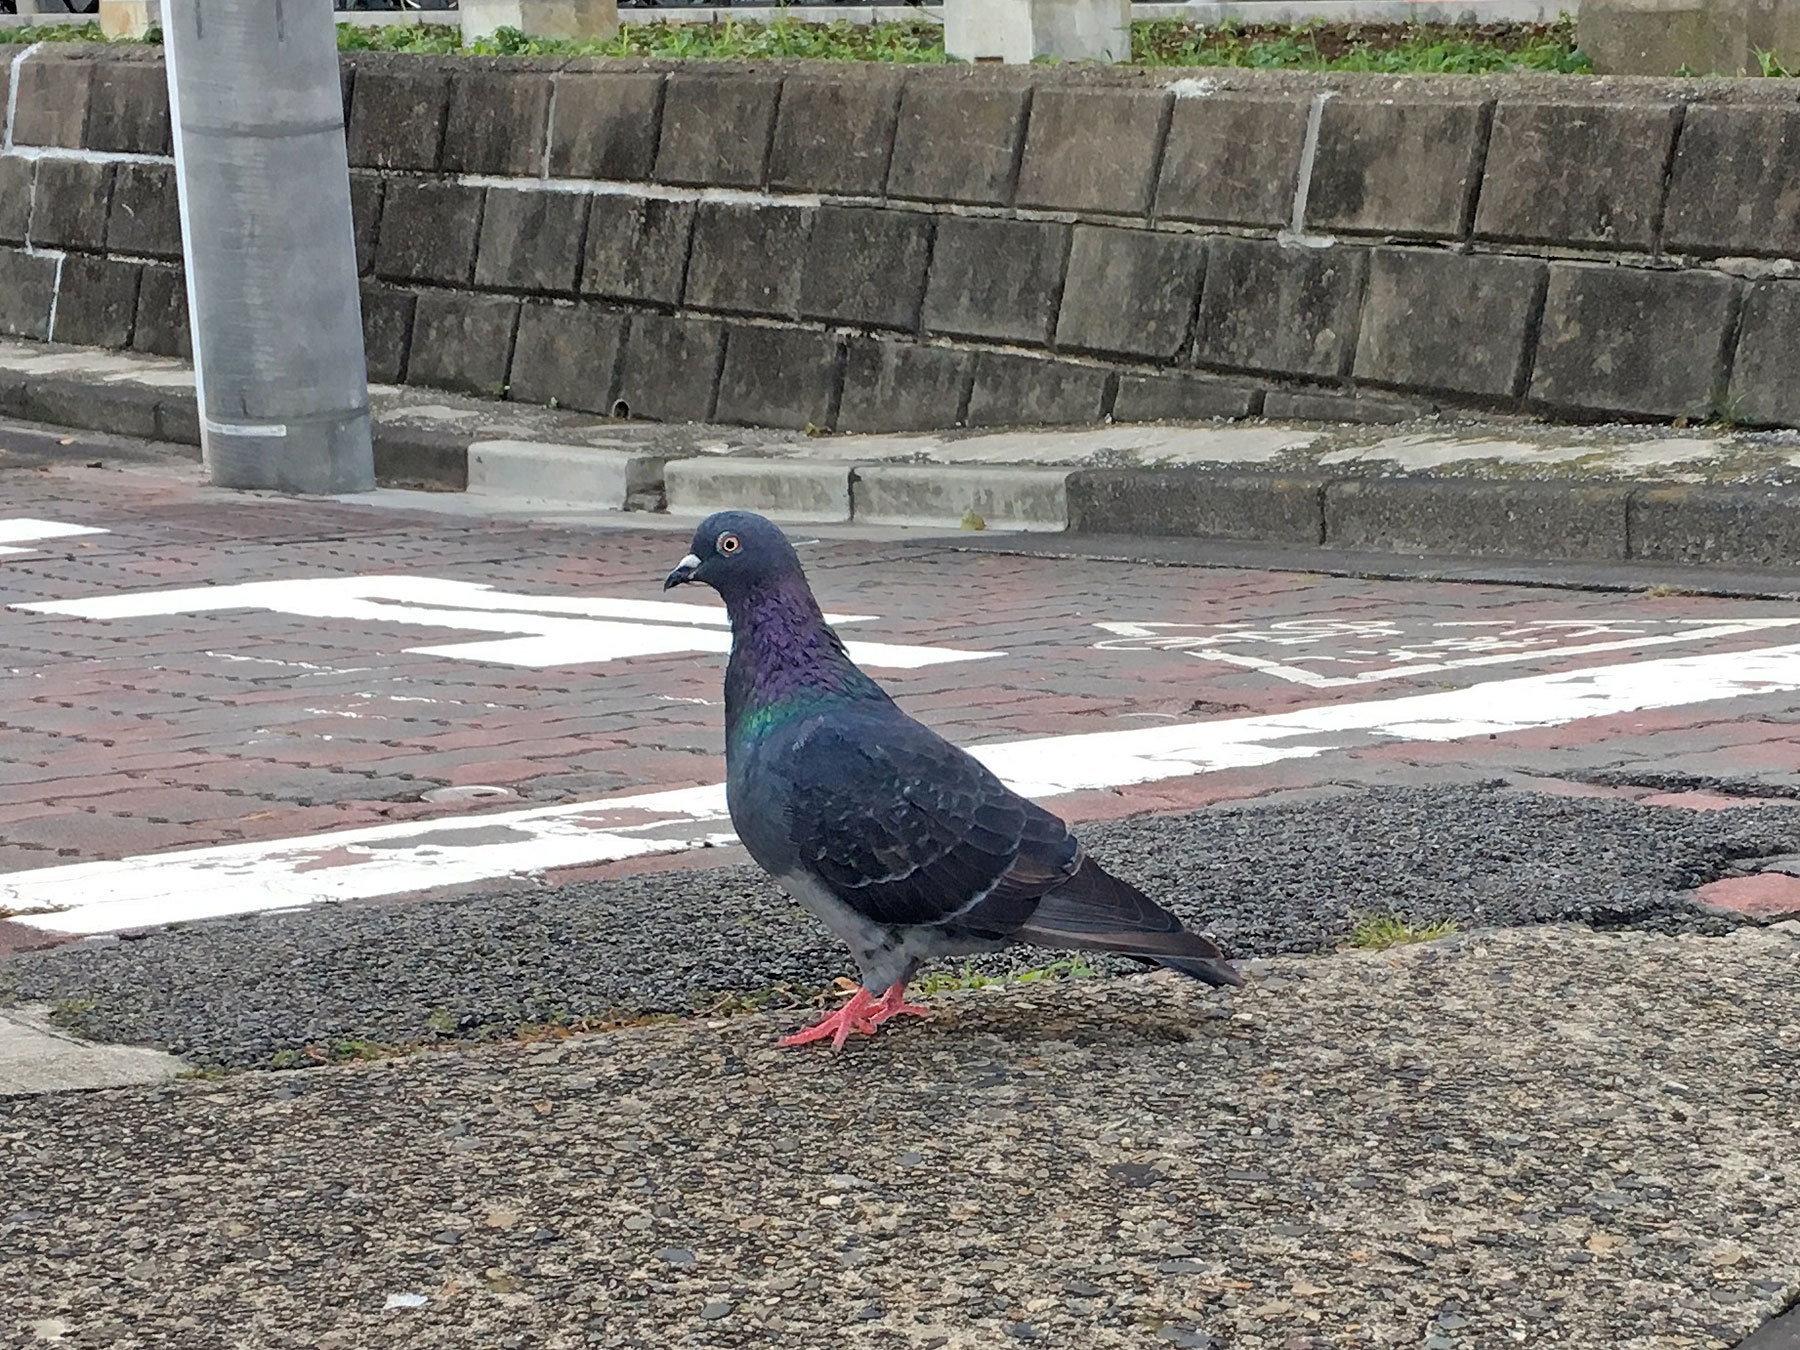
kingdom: Animalia
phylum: Chordata
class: Aves
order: Columbiformes
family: Columbidae
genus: Columba
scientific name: Columba livia
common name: Rock pigeon
